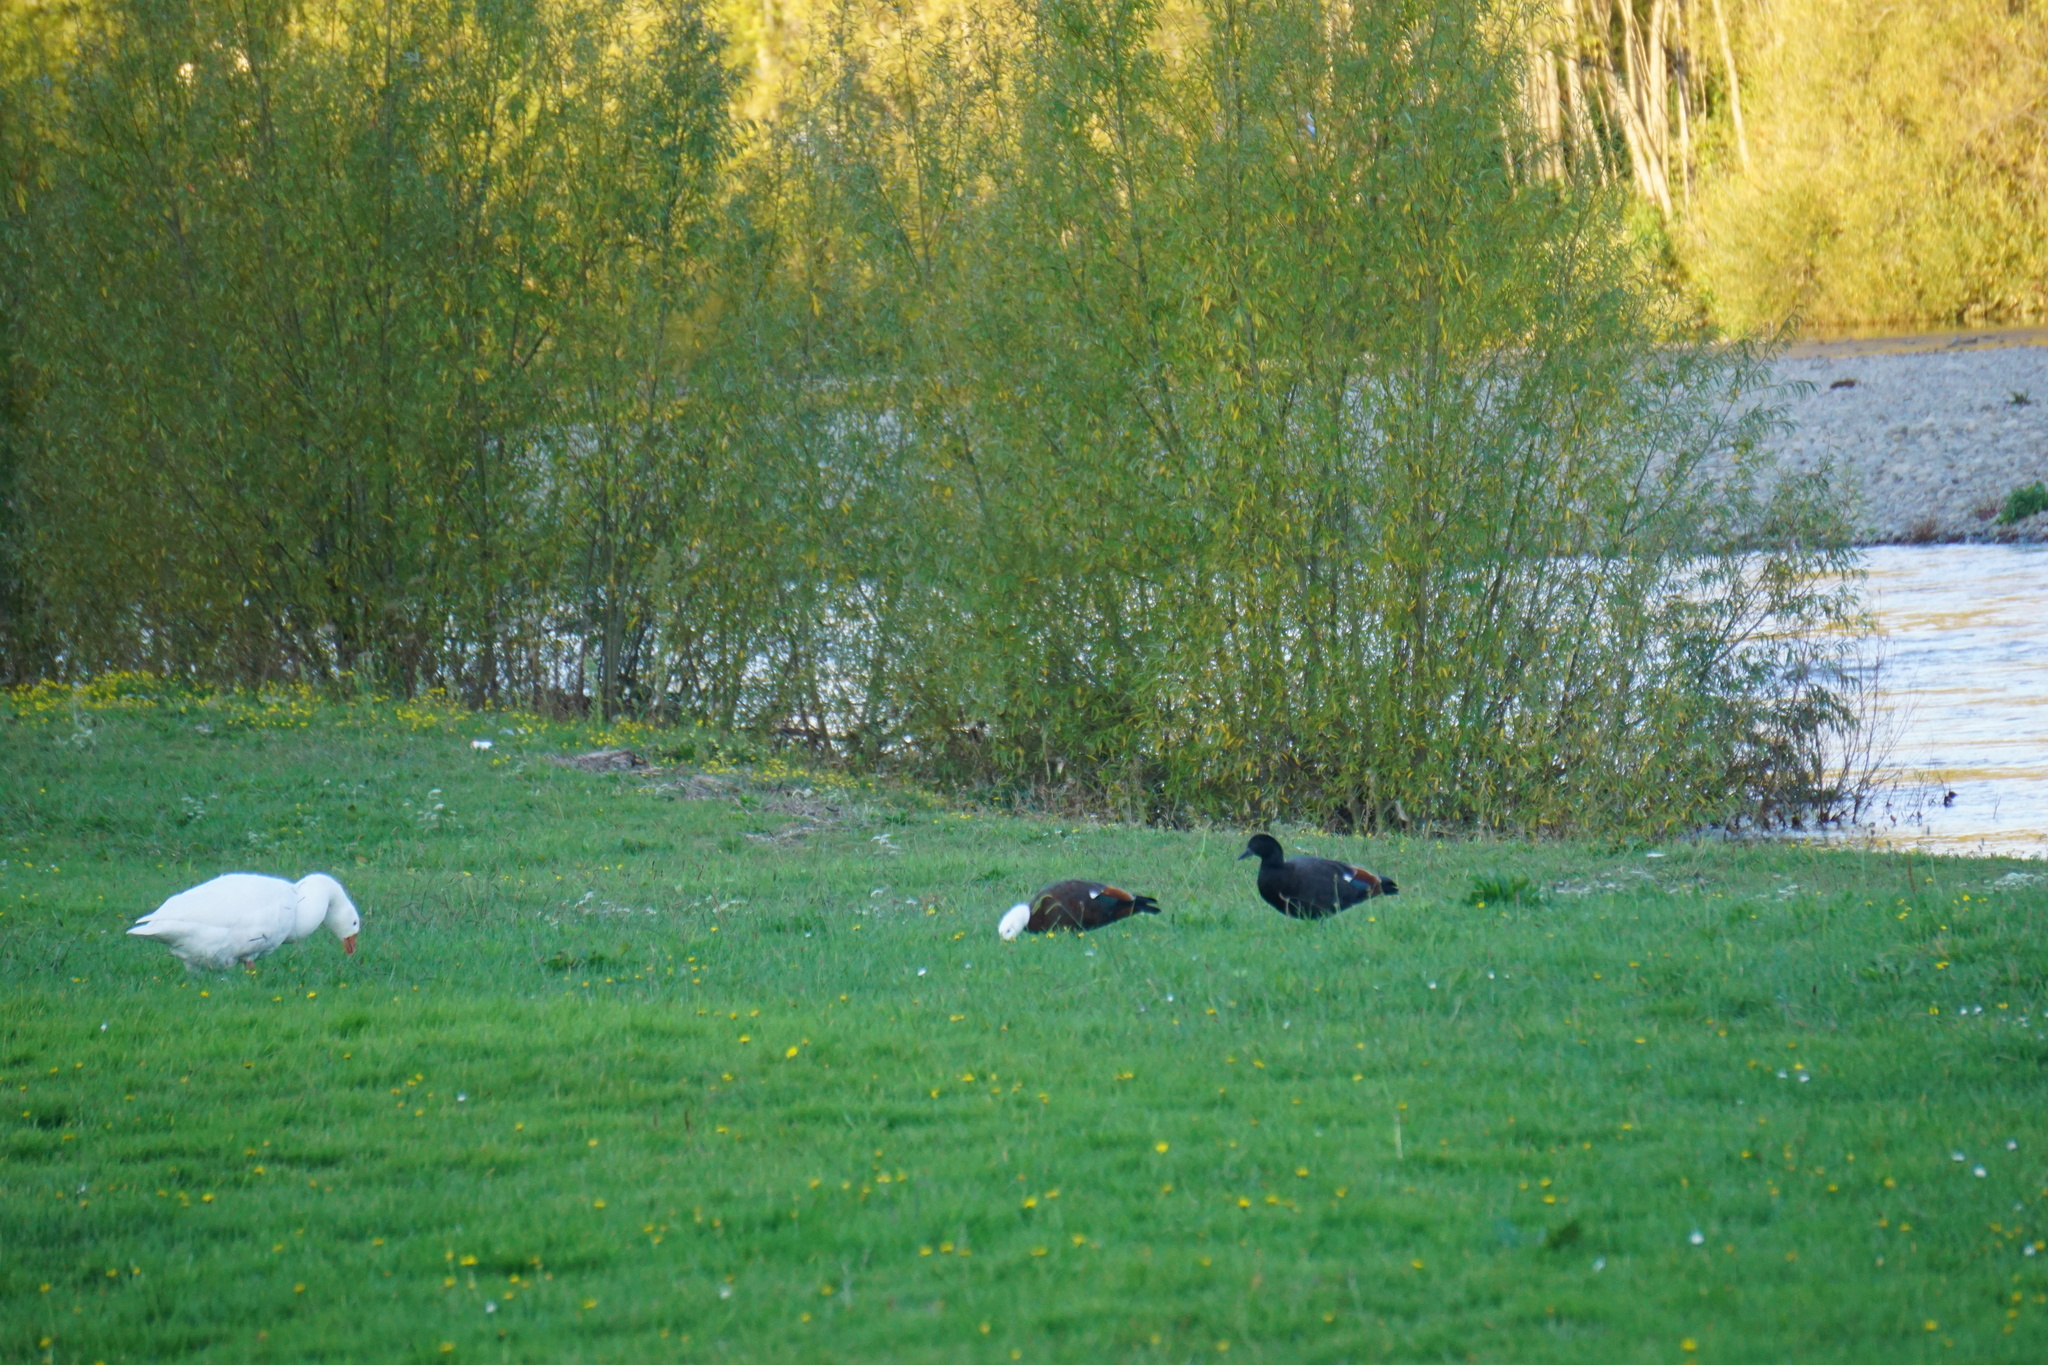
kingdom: Animalia
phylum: Chordata
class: Aves
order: Anseriformes
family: Anatidae
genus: Tadorna
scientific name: Tadorna variegata
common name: Paradise shelduck
